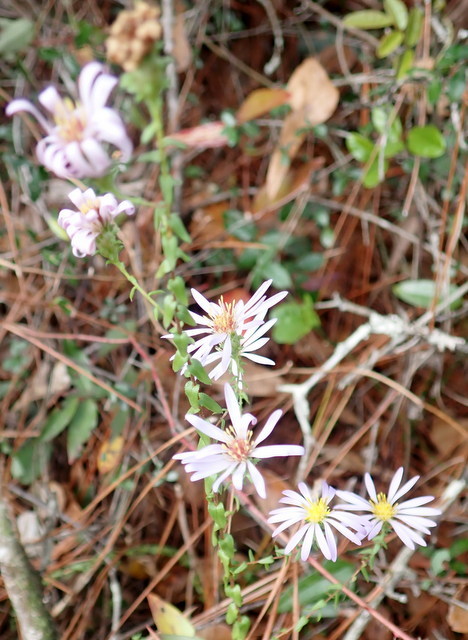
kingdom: Plantae
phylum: Tracheophyta
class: Magnoliopsida
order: Asterales
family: Asteraceae
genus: Symphyotrichum
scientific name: Symphyotrichum walteri
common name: Walter's aster
